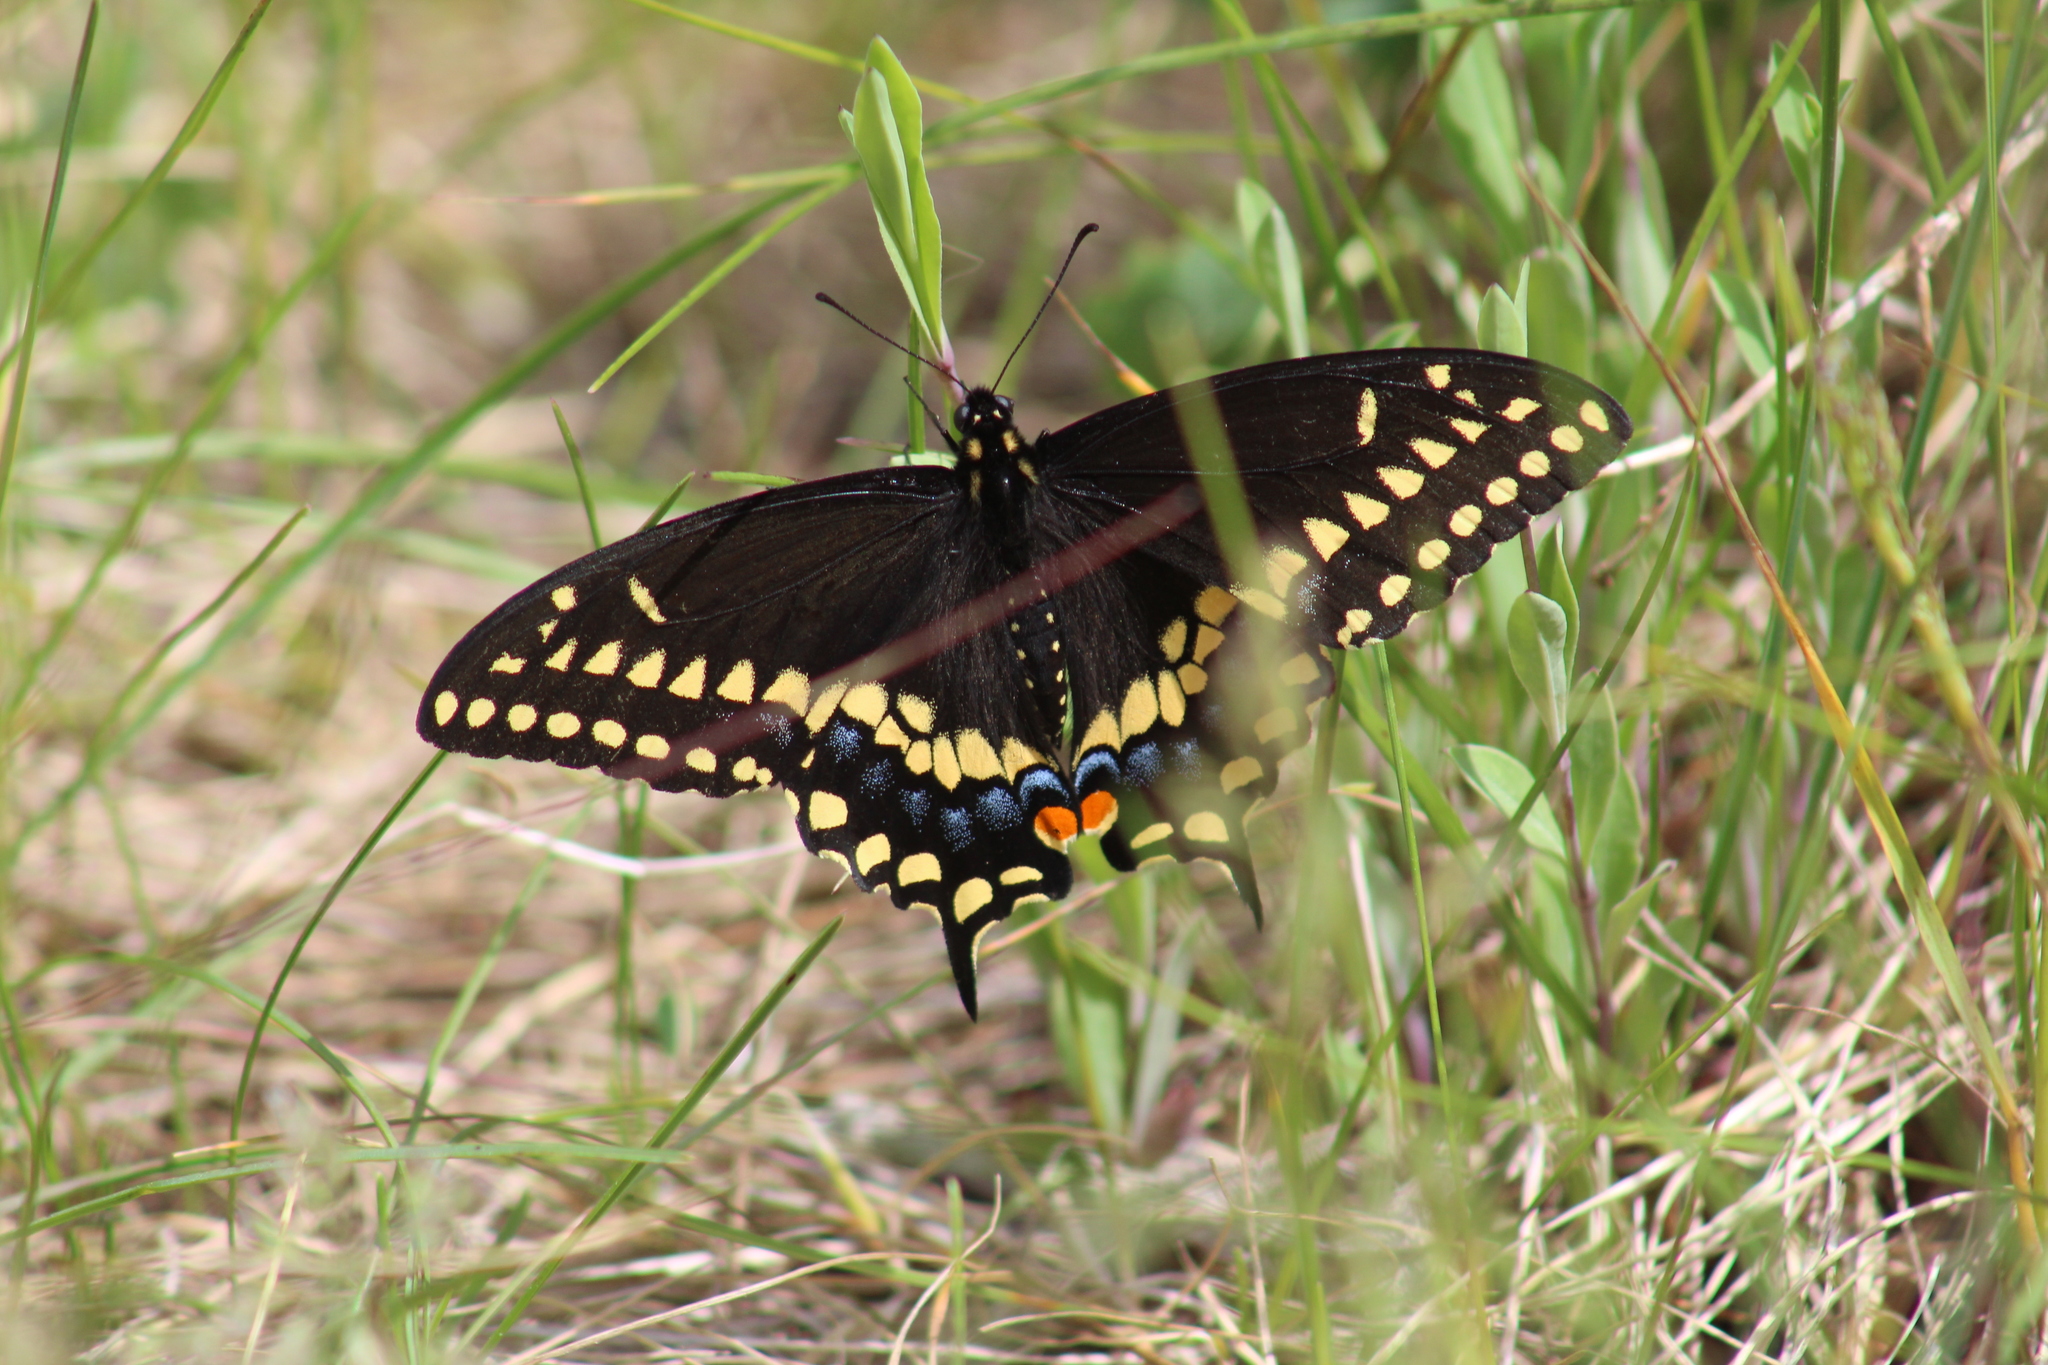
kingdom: Animalia
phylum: Arthropoda
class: Insecta
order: Lepidoptera
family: Papilionidae
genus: Papilio
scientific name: Papilio polyxenes
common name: Black swallowtail
